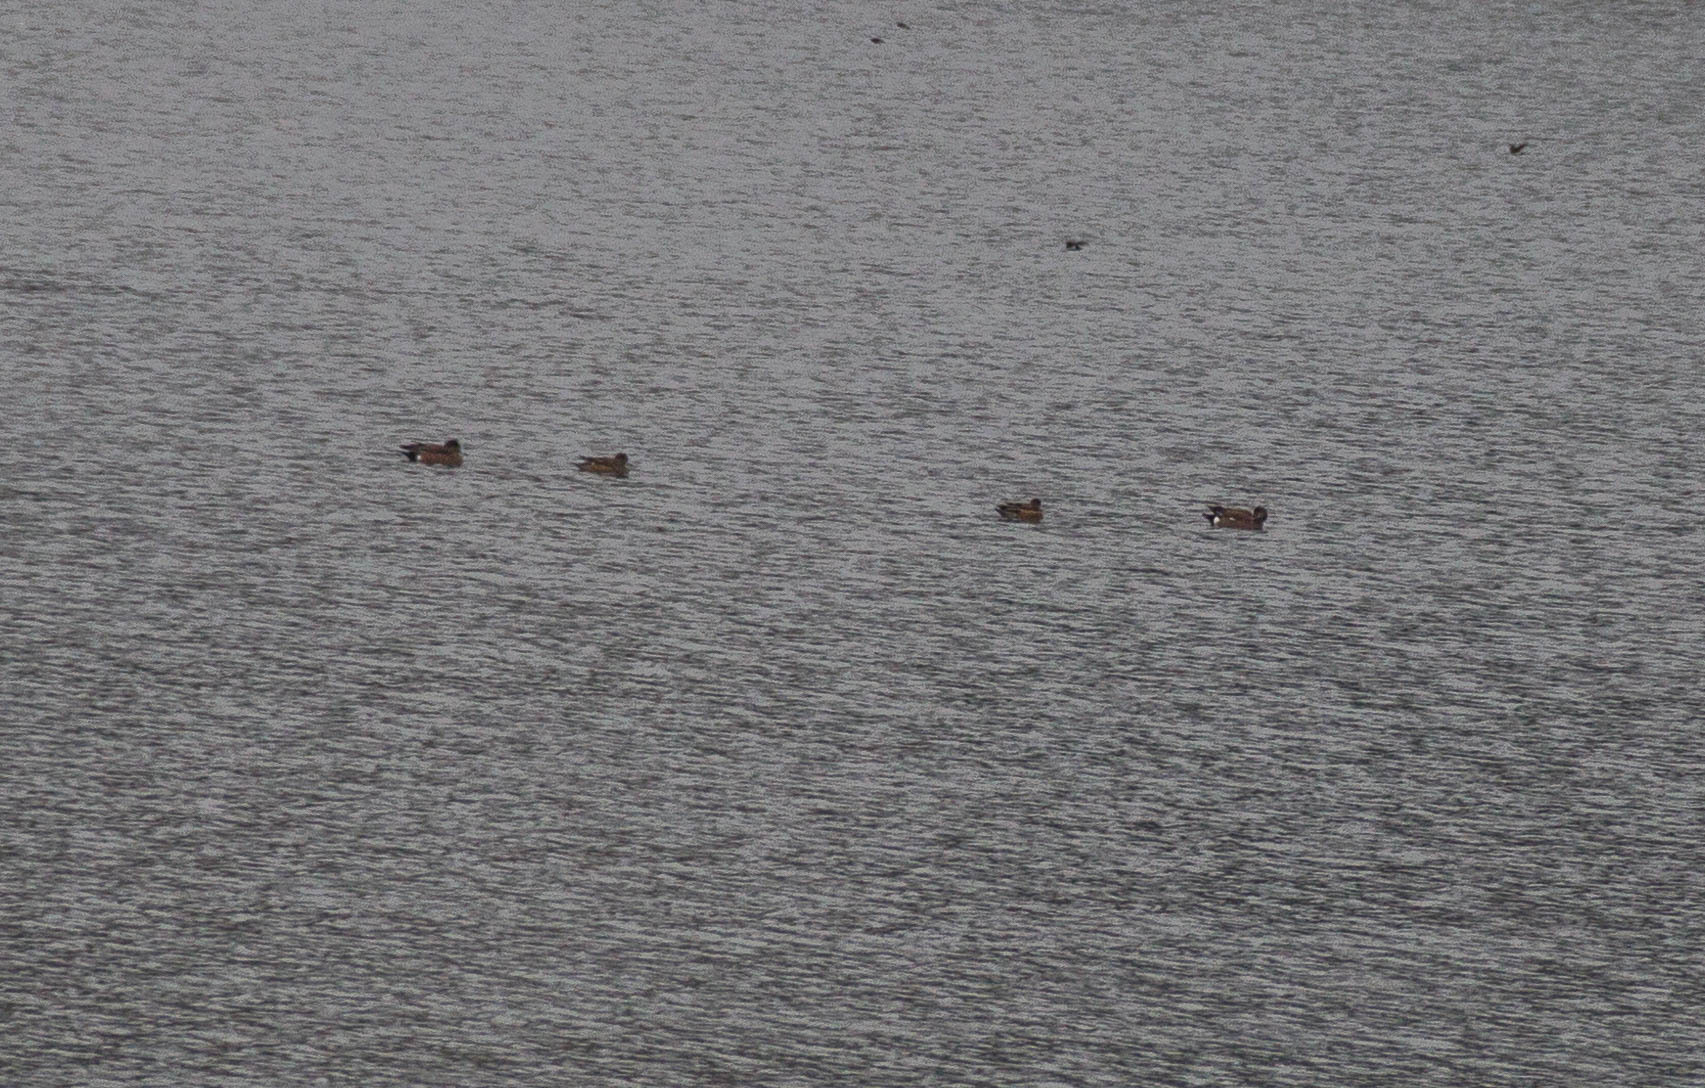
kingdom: Animalia
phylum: Chordata
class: Aves
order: Anseriformes
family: Anatidae
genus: Mareca
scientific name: Mareca americana
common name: American wigeon
